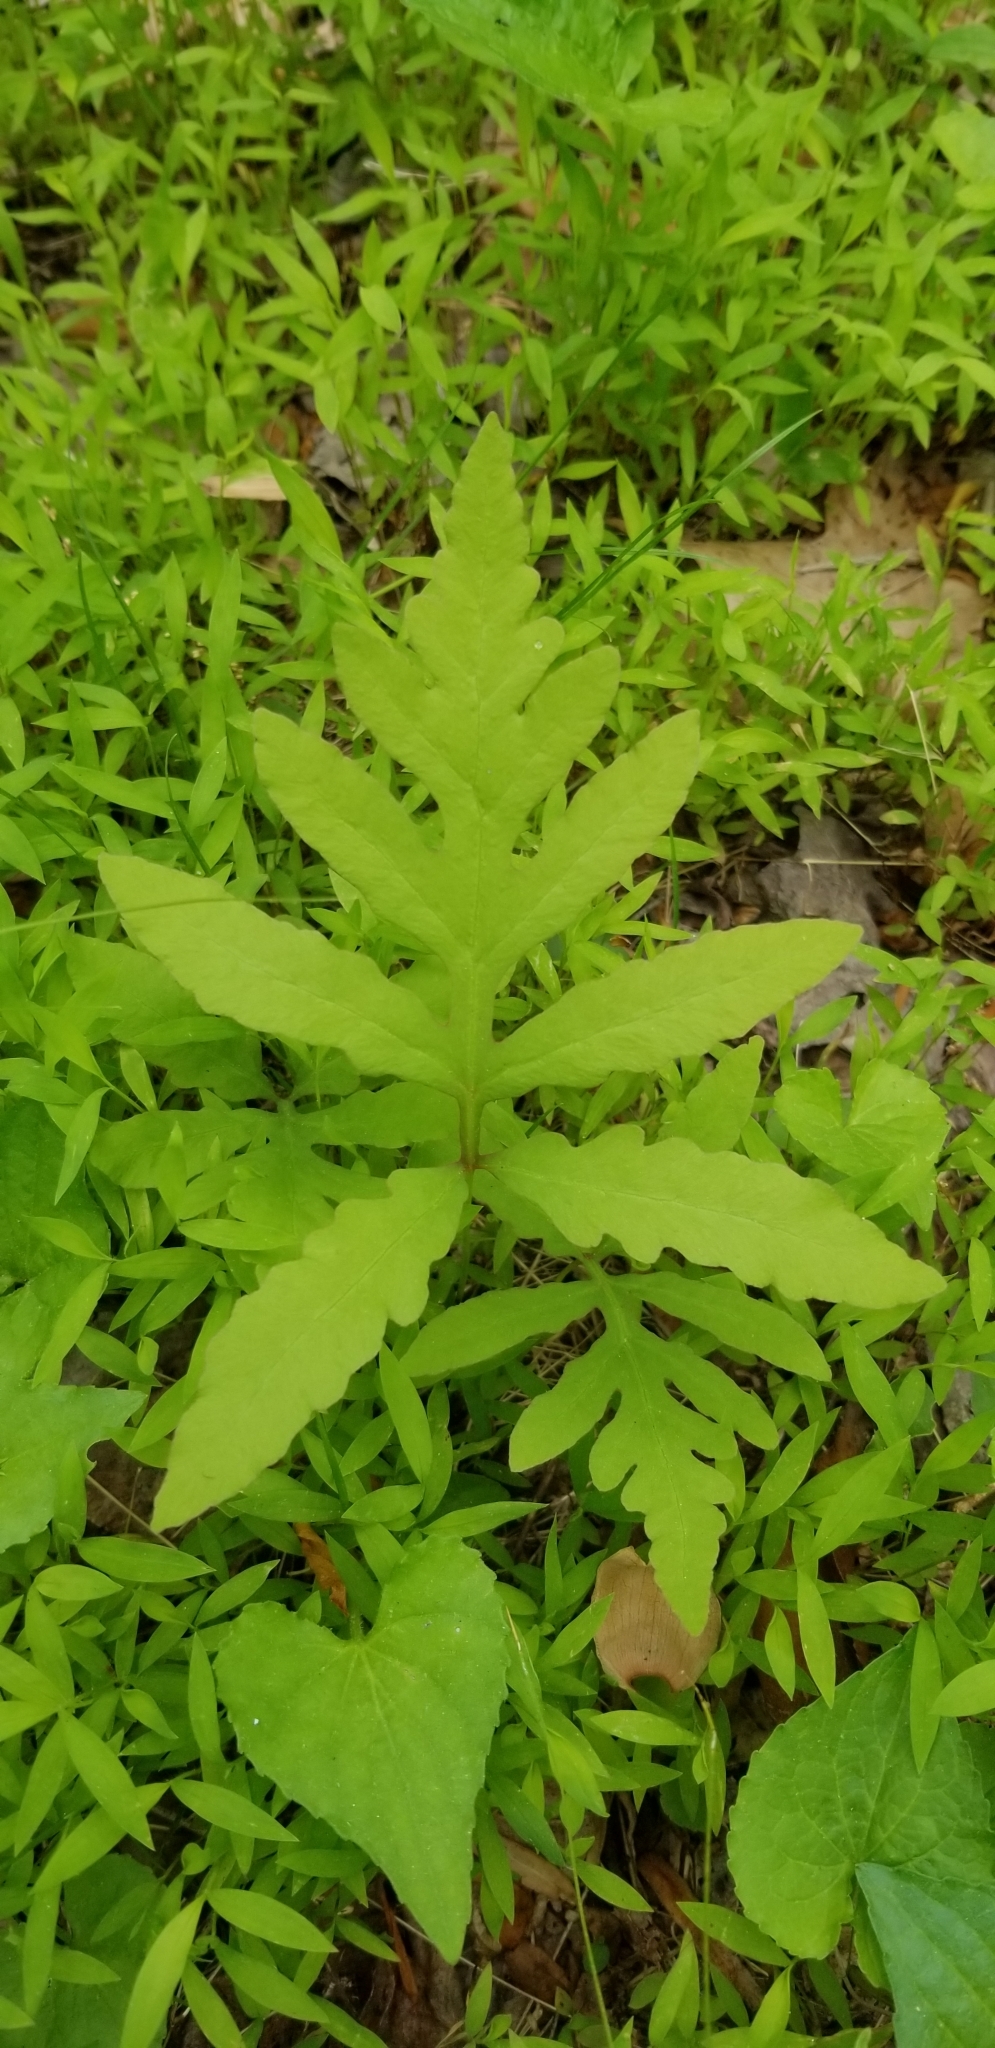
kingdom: Plantae
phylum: Tracheophyta
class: Polypodiopsida
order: Polypodiales
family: Onocleaceae
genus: Onoclea
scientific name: Onoclea sensibilis
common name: Sensitive fern
